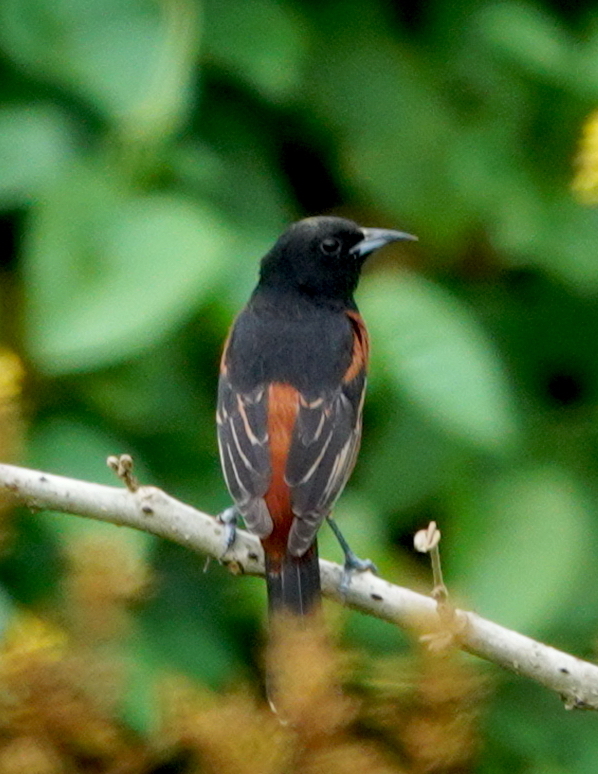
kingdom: Animalia
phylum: Chordata
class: Aves
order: Passeriformes
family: Icteridae
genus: Icterus
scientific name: Icterus spurius
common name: Orchard oriole
